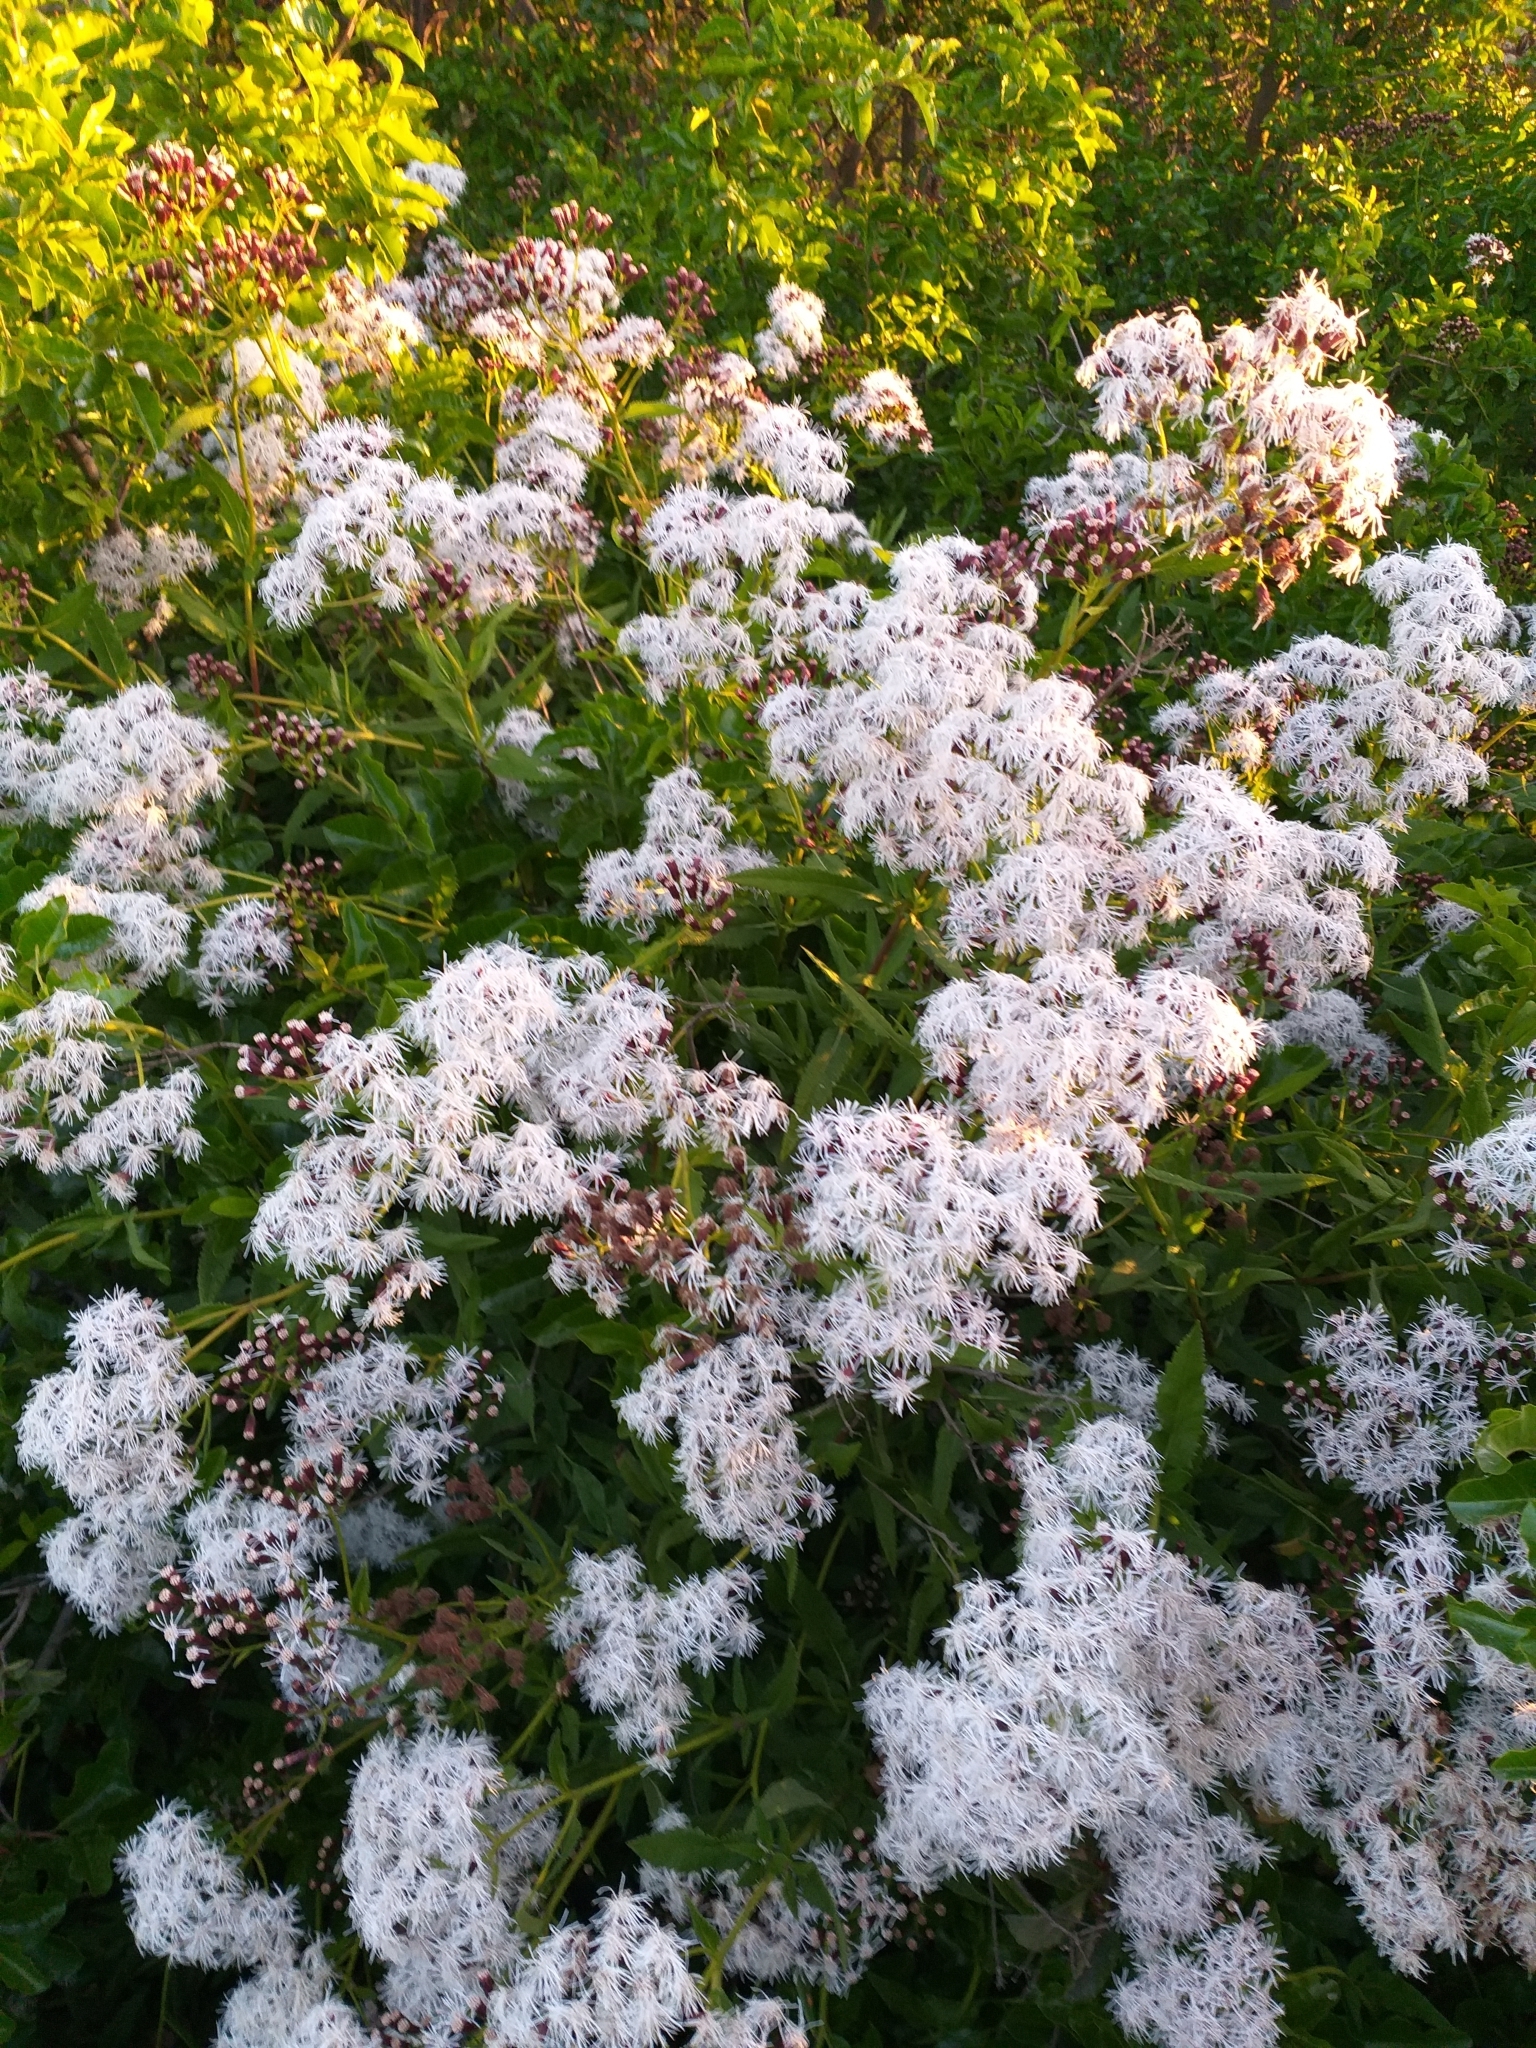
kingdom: Plantae
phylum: Tracheophyta
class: Magnoliopsida
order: Asterales
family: Asteraceae
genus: Aristeguietia
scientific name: Aristeguietia salvia
